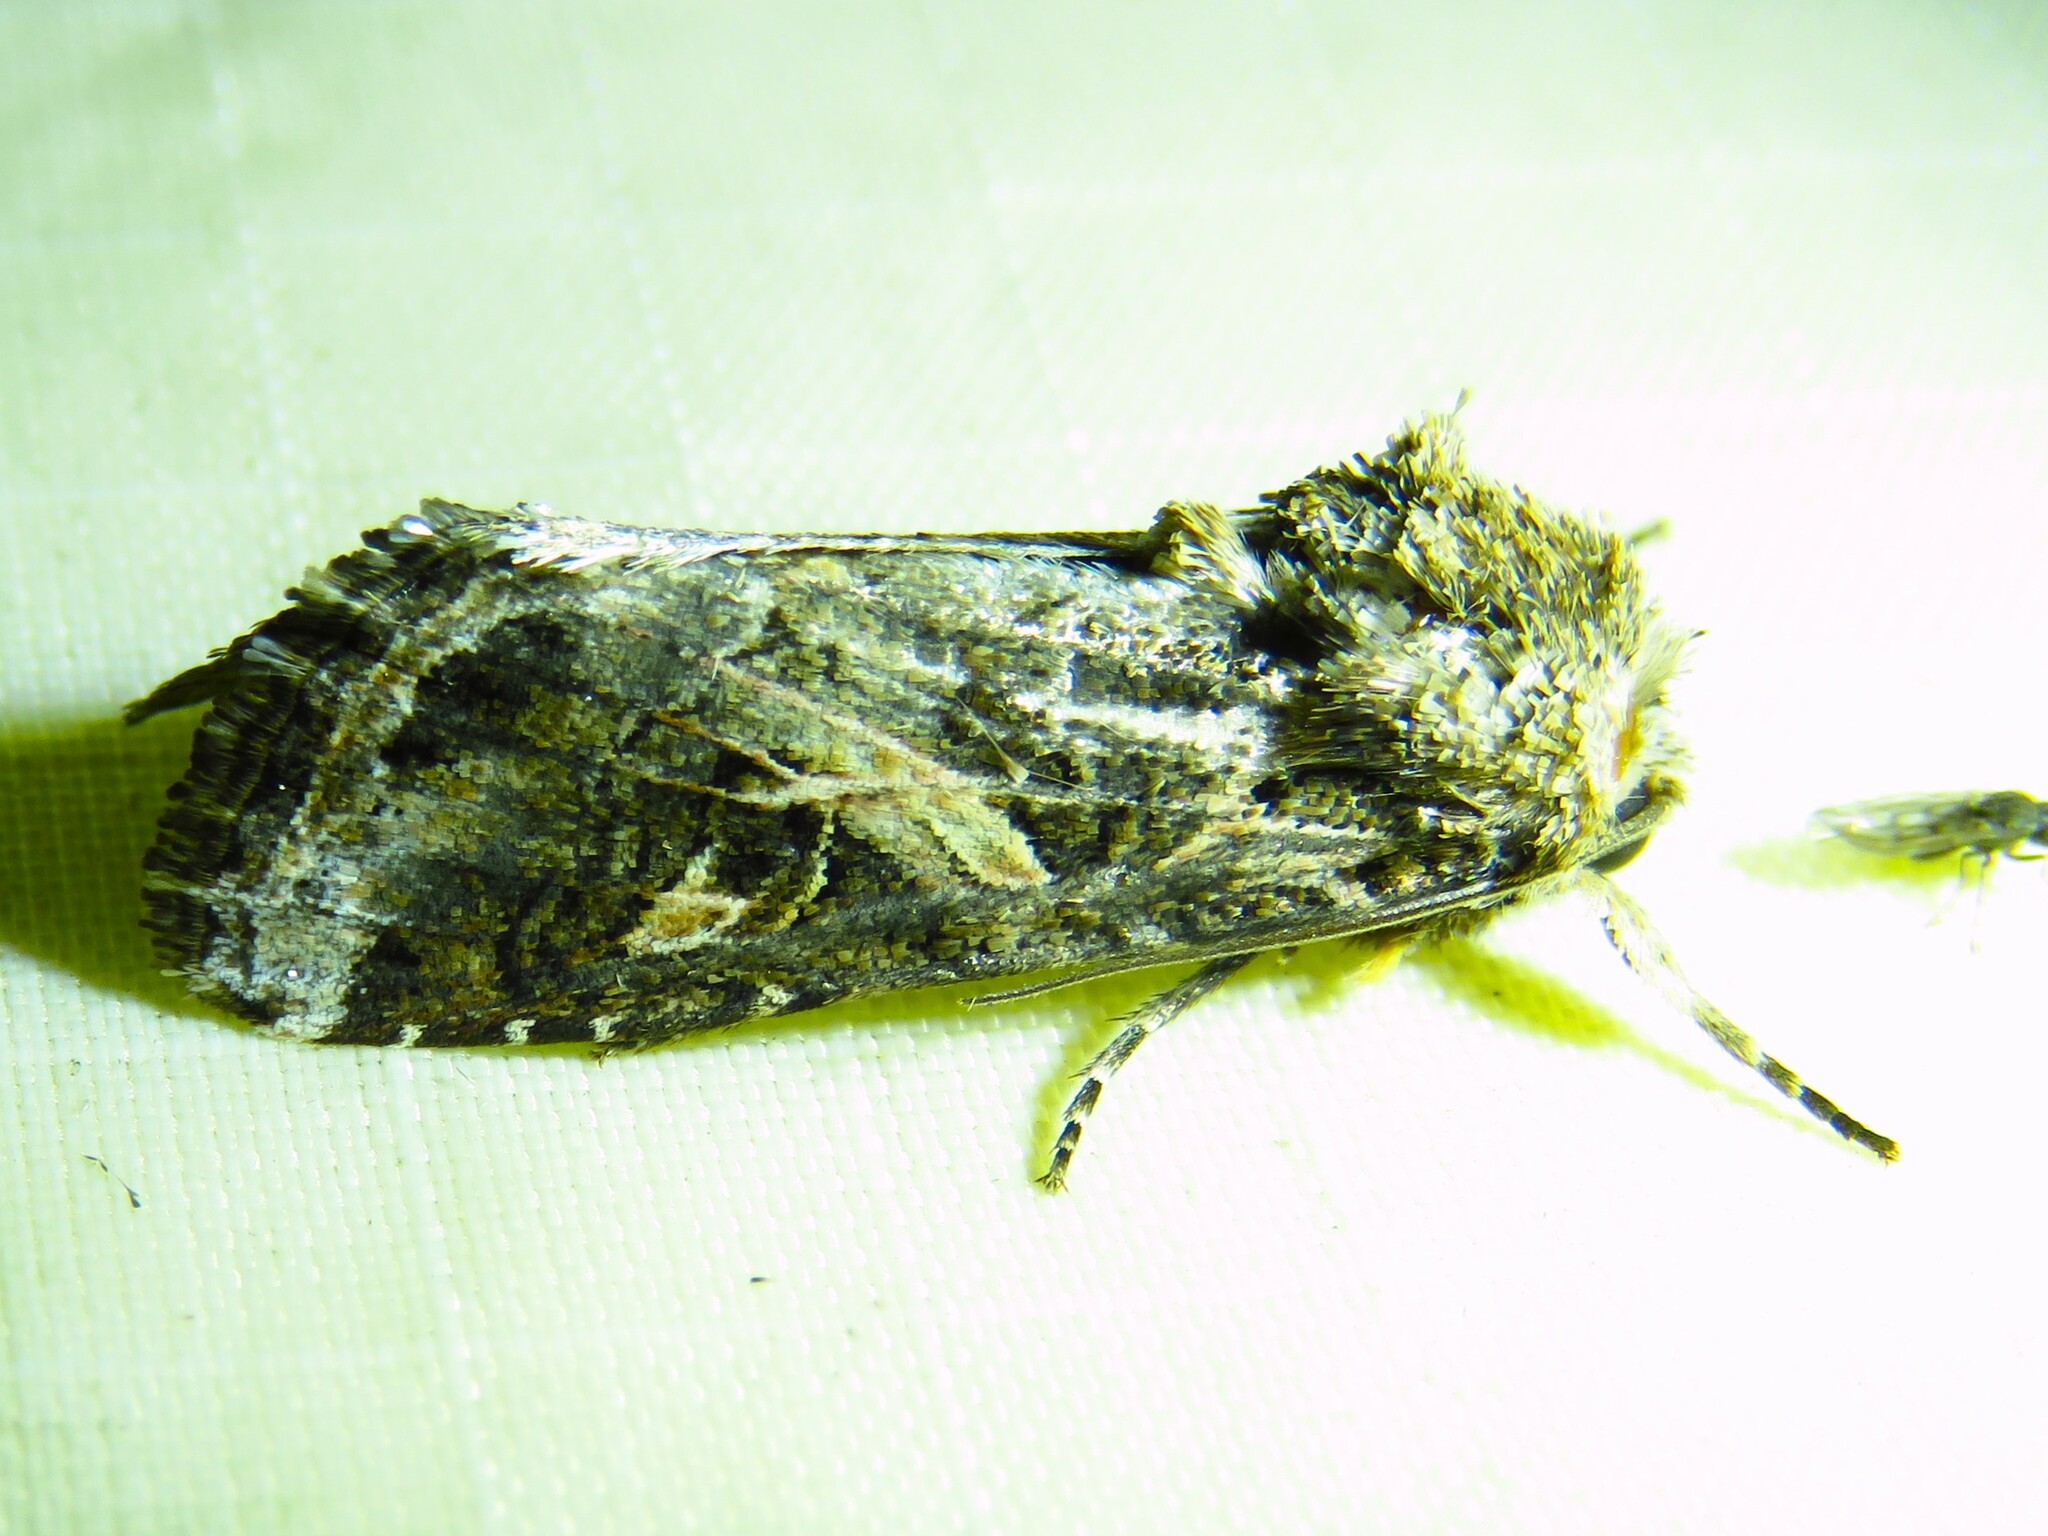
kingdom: Animalia
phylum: Arthropoda
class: Insecta
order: Lepidoptera
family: Noctuidae
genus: Spodoptera
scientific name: Spodoptera ornithogalli
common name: Yellow-striped armyworm
